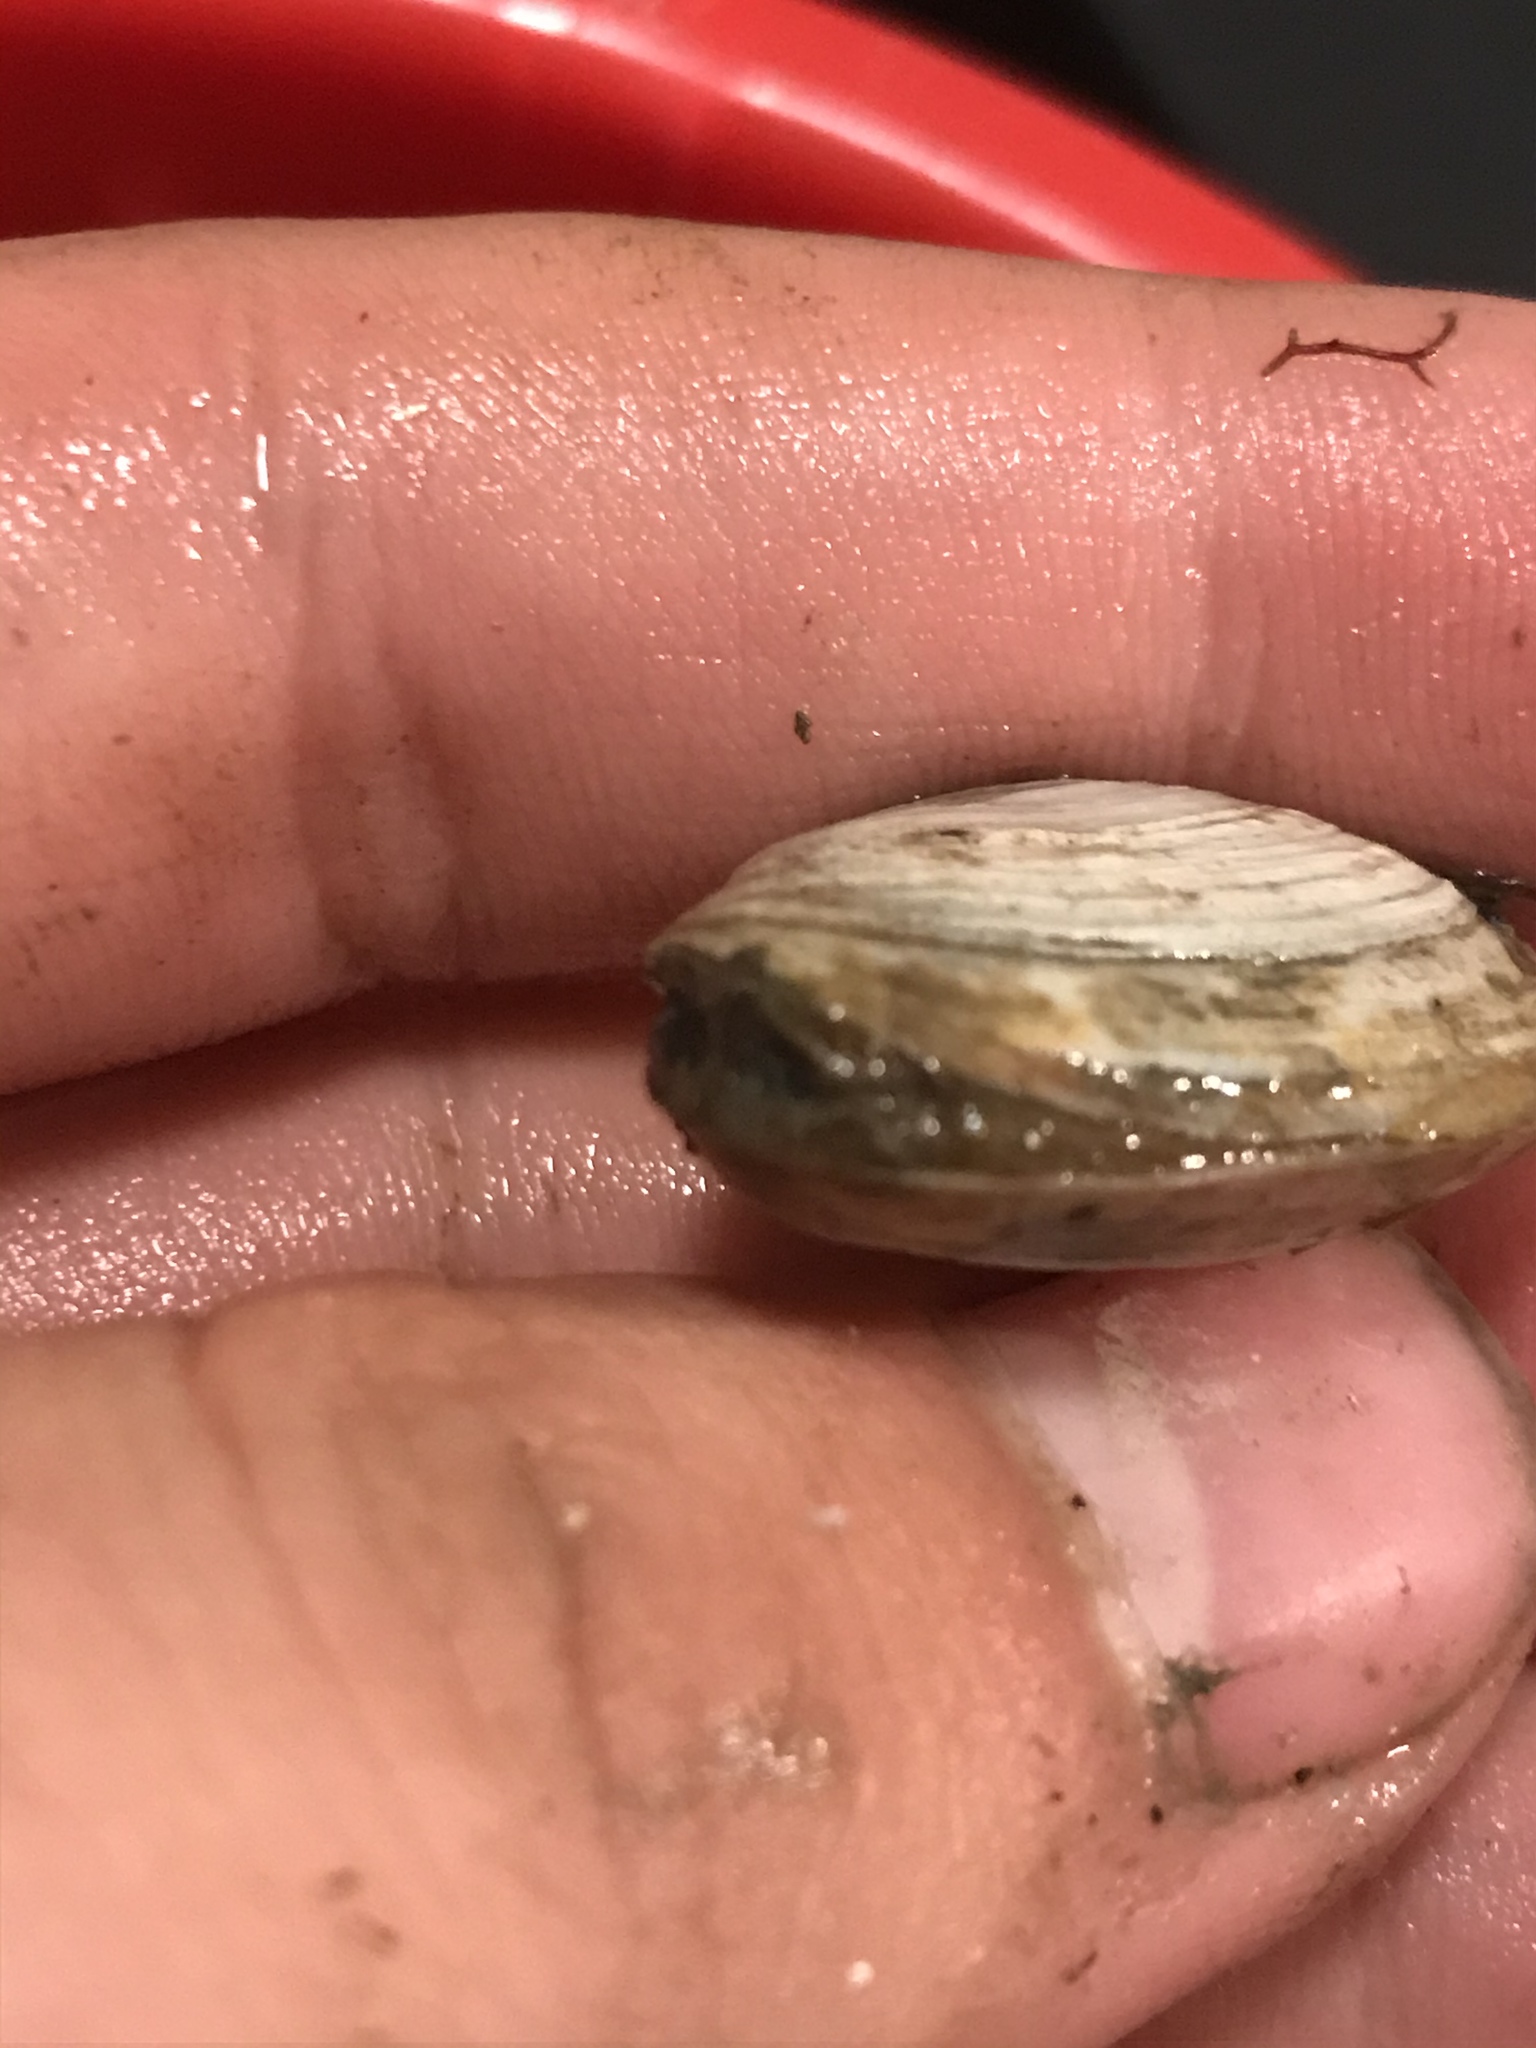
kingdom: Animalia
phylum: Mollusca
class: Bivalvia
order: Myida
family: Myidae
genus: Mya
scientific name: Mya arenaria
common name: Soft-shelled clam
